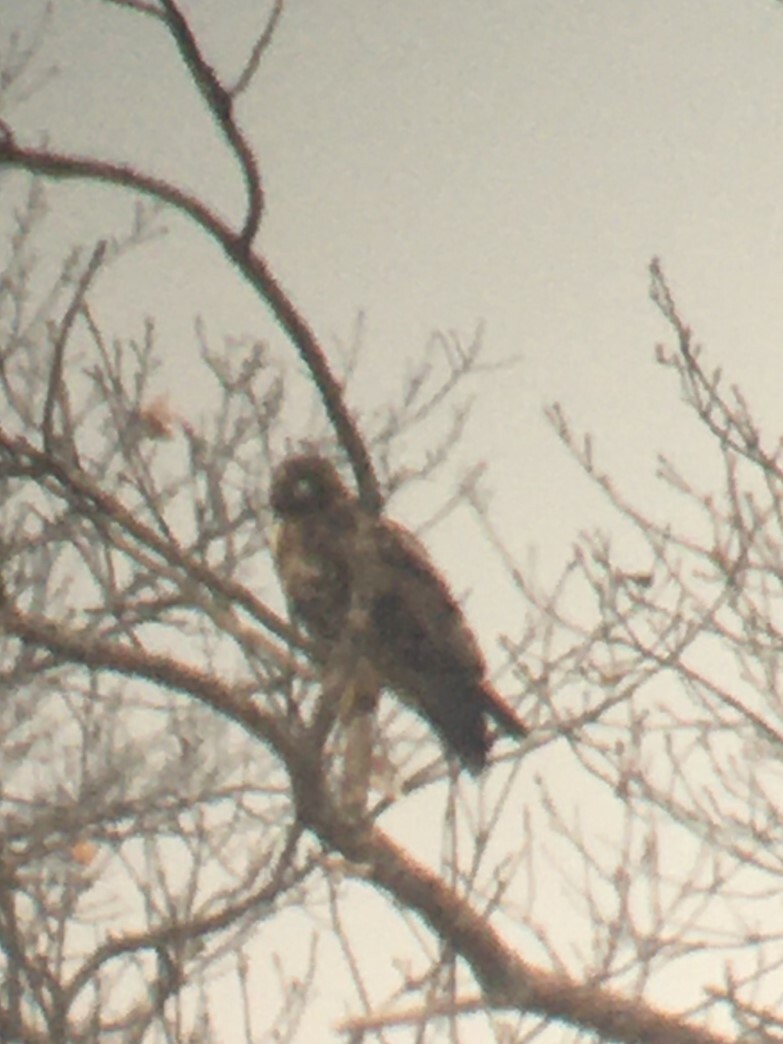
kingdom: Animalia
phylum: Chordata
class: Aves
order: Accipitriformes
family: Accipitridae
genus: Buteo
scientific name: Buteo jamaicensis
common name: Red-tailed hawk
